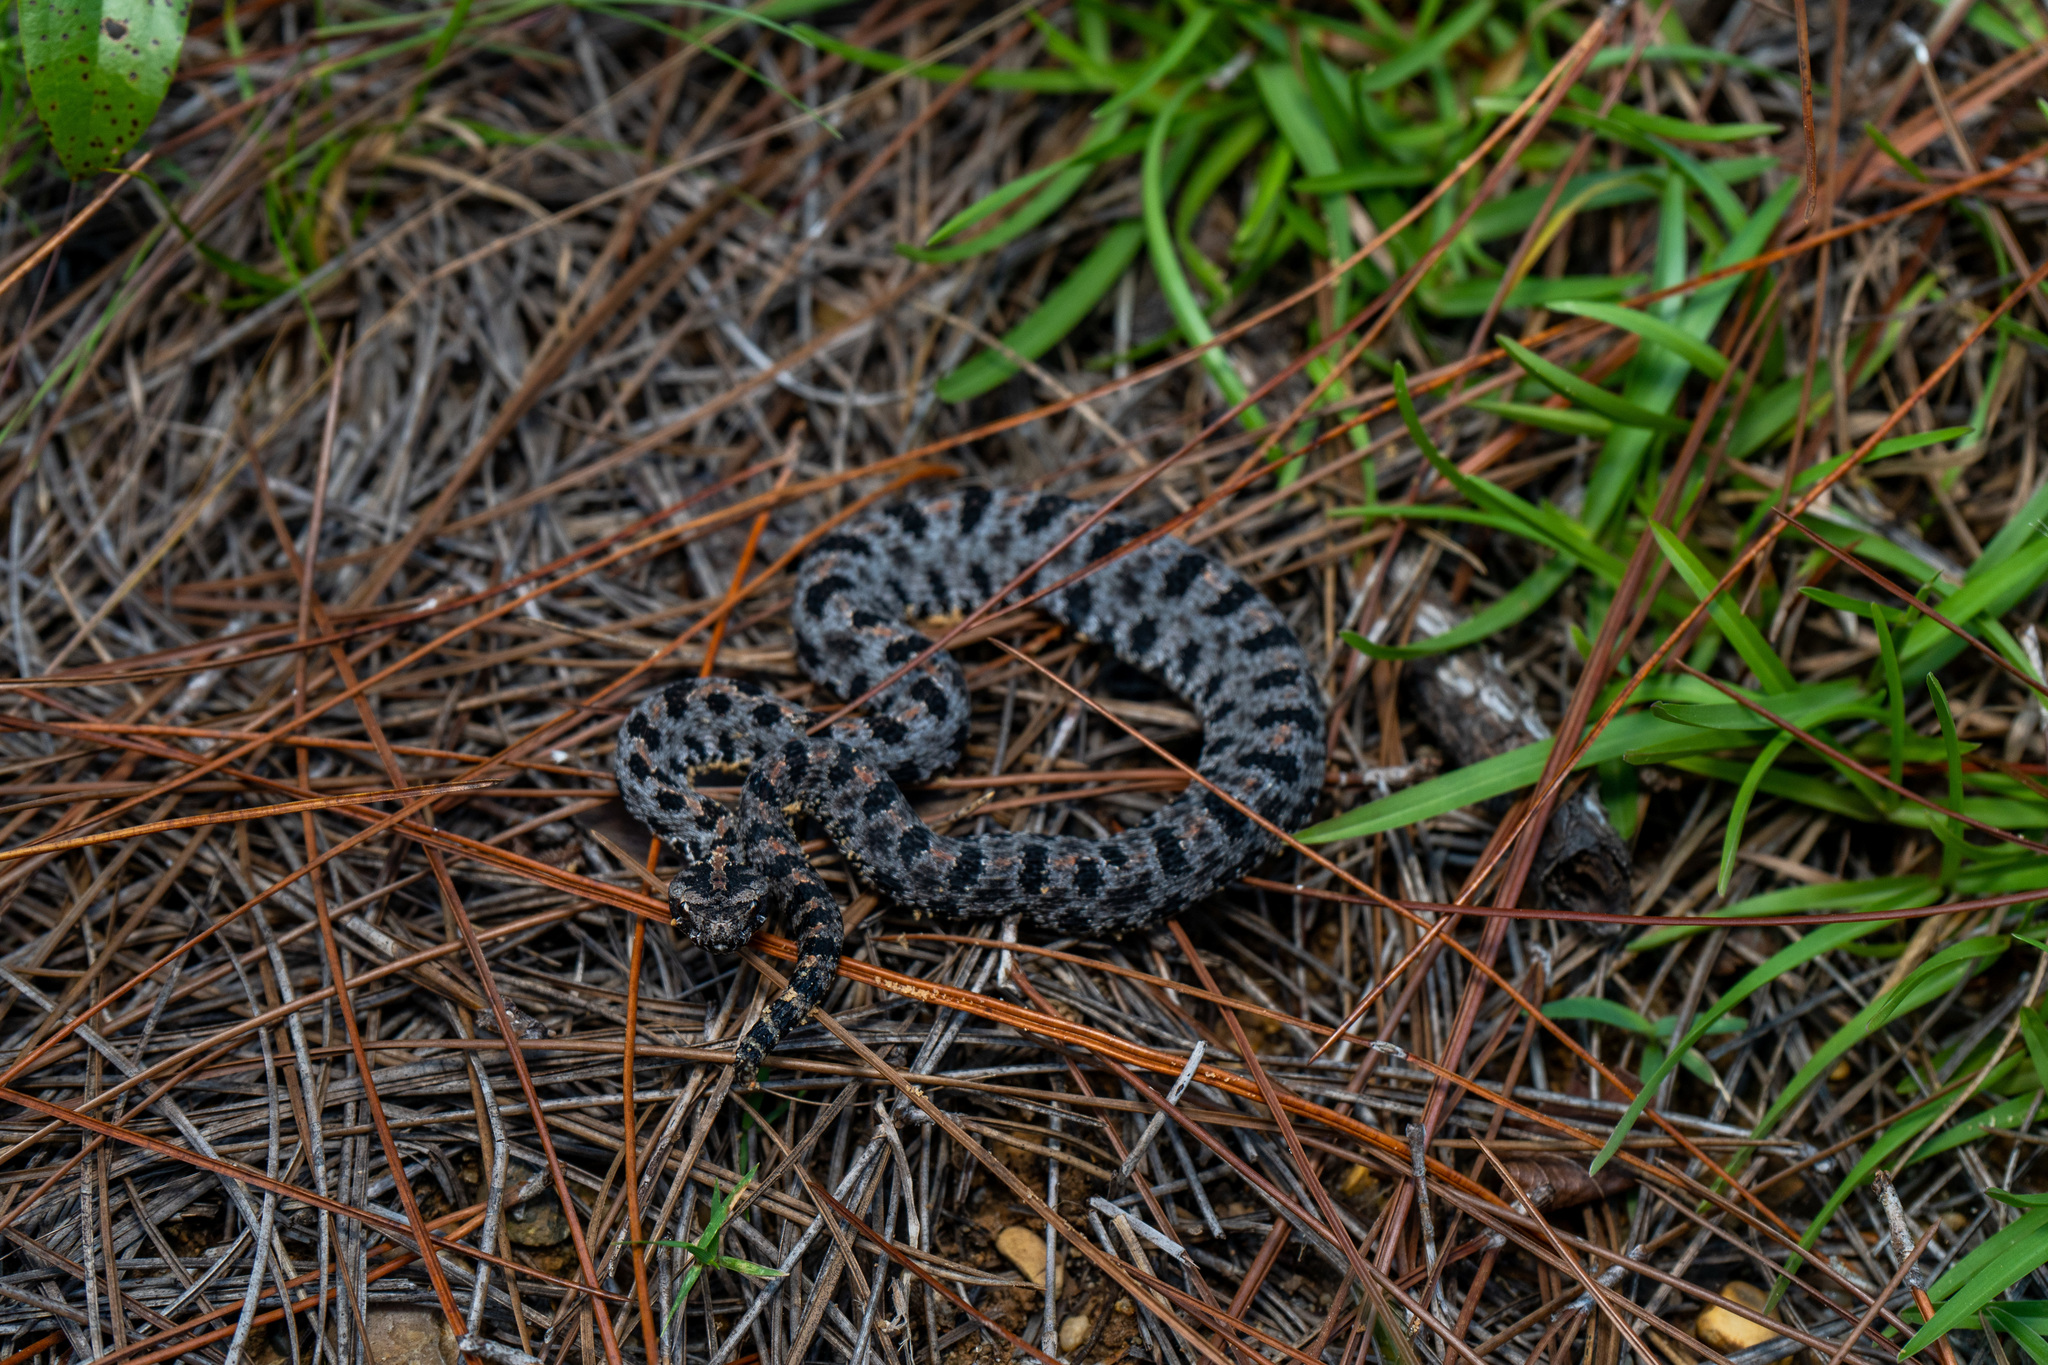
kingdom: Animalia
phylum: Chordata
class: Squamata
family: Viperidae
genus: Sistrurus
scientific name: Sistrurus miliarius
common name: Pygmy rattlesnake
